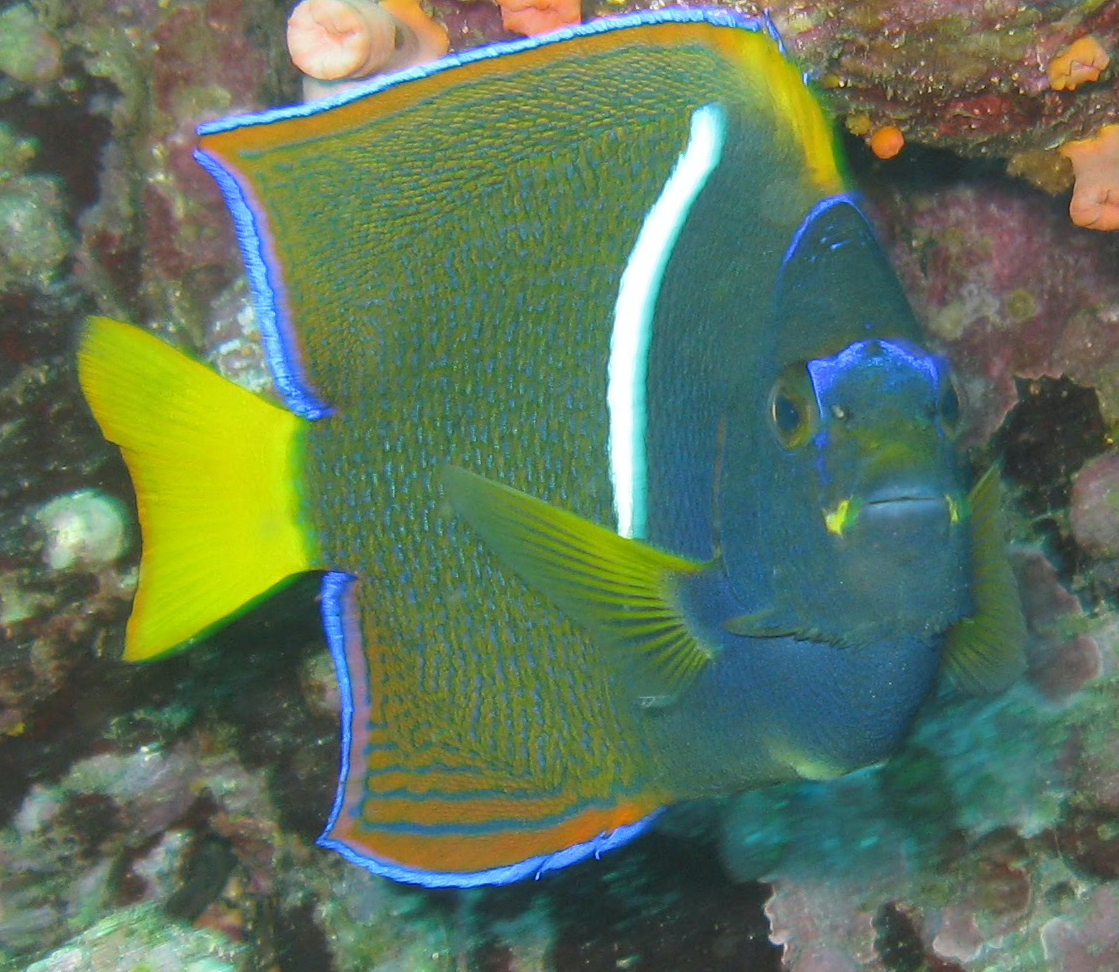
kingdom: Animalia
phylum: Chordata
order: Perciformes
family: Pomacanthidae
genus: Holacanthus
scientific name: Holacanthus passer
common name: King angelfish
